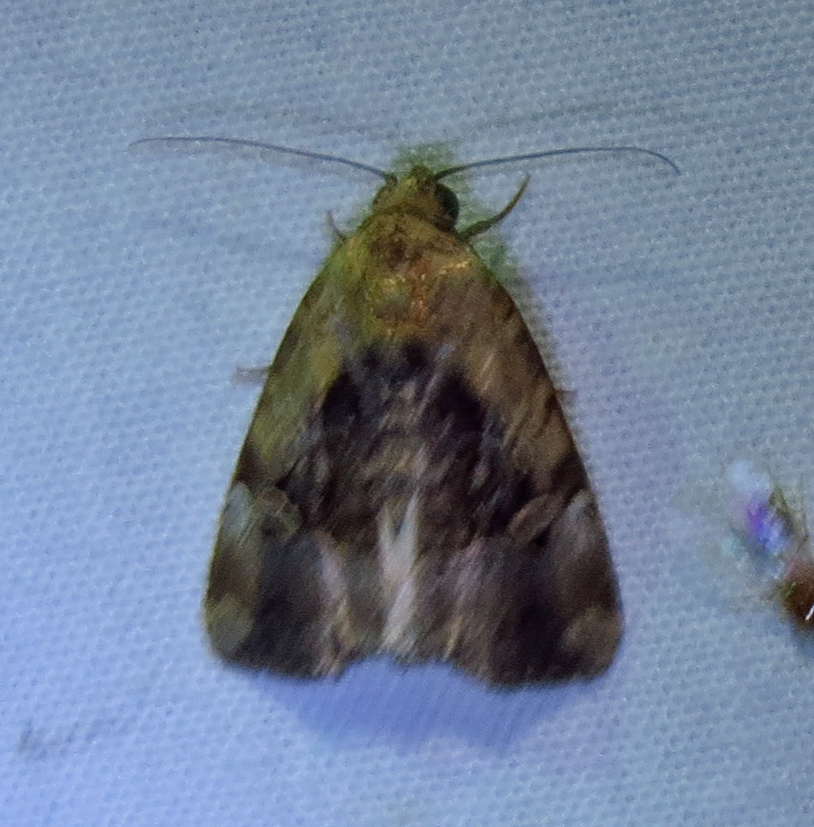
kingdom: Animalia
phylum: Arthropoda
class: Insecta
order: Lepidoptera
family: Noctuidae
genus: Elaphria
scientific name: Elaphria chalcedonia
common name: Chalcedony midget
